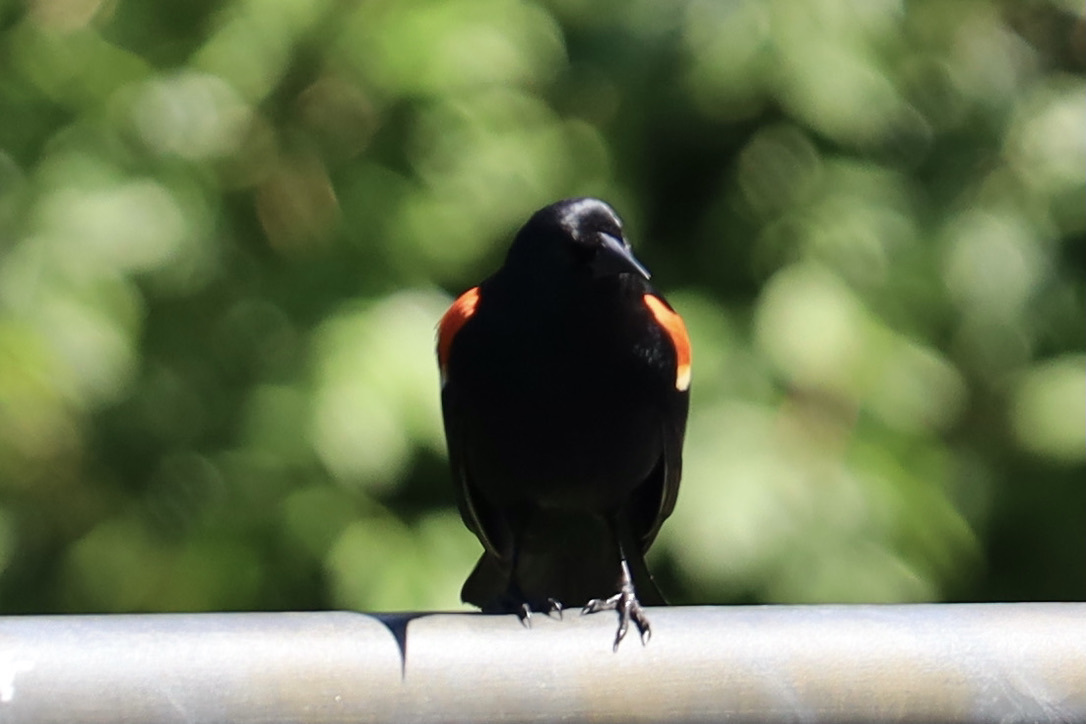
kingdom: Animalia
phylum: Chordata
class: Aves
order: Passeriformes
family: Icteridae
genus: Agelaius
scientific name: Agelaius phoeniceus
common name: Red-winged blackbird
